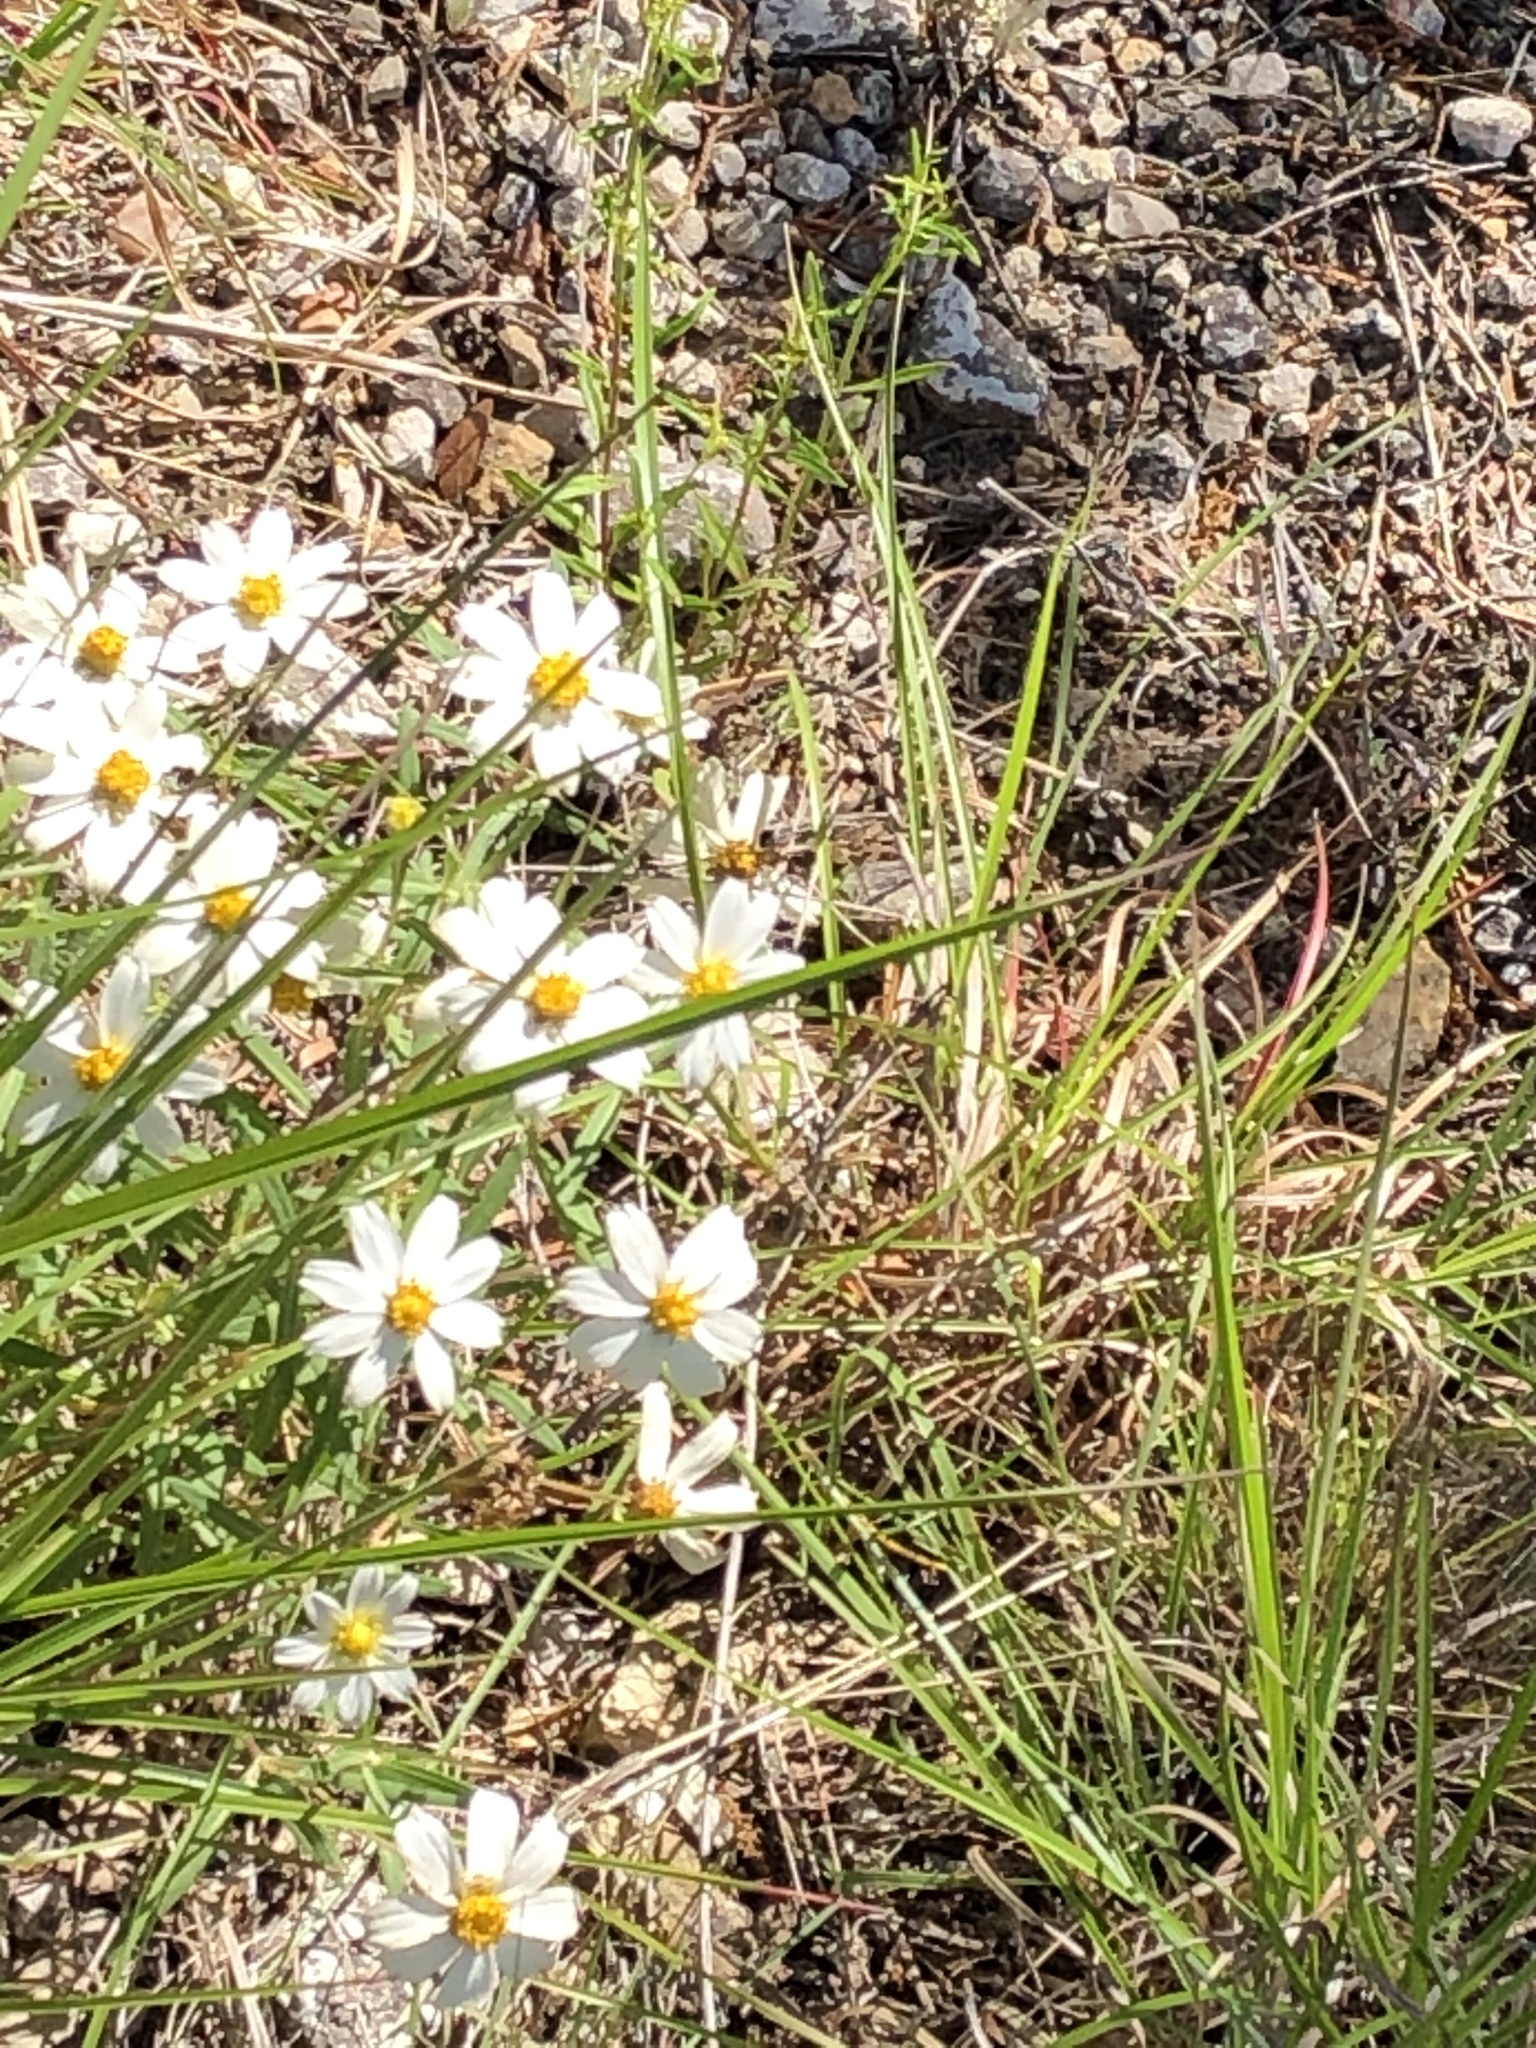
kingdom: Plantae
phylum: Tracheophyta
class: Magnoliopsida
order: Asterales
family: Asteraceae
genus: Melampodium
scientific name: Melampodium leucanthum
